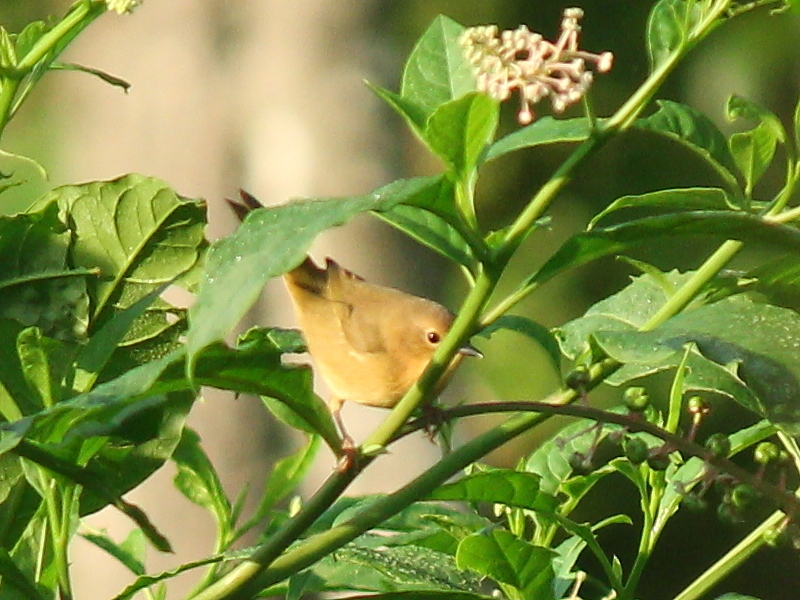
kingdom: Animalia
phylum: Chordata
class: Aves
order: Passeriformes
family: Parulidae
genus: Geothlypis
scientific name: Geothlypis trichas
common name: Common yellowthroat
